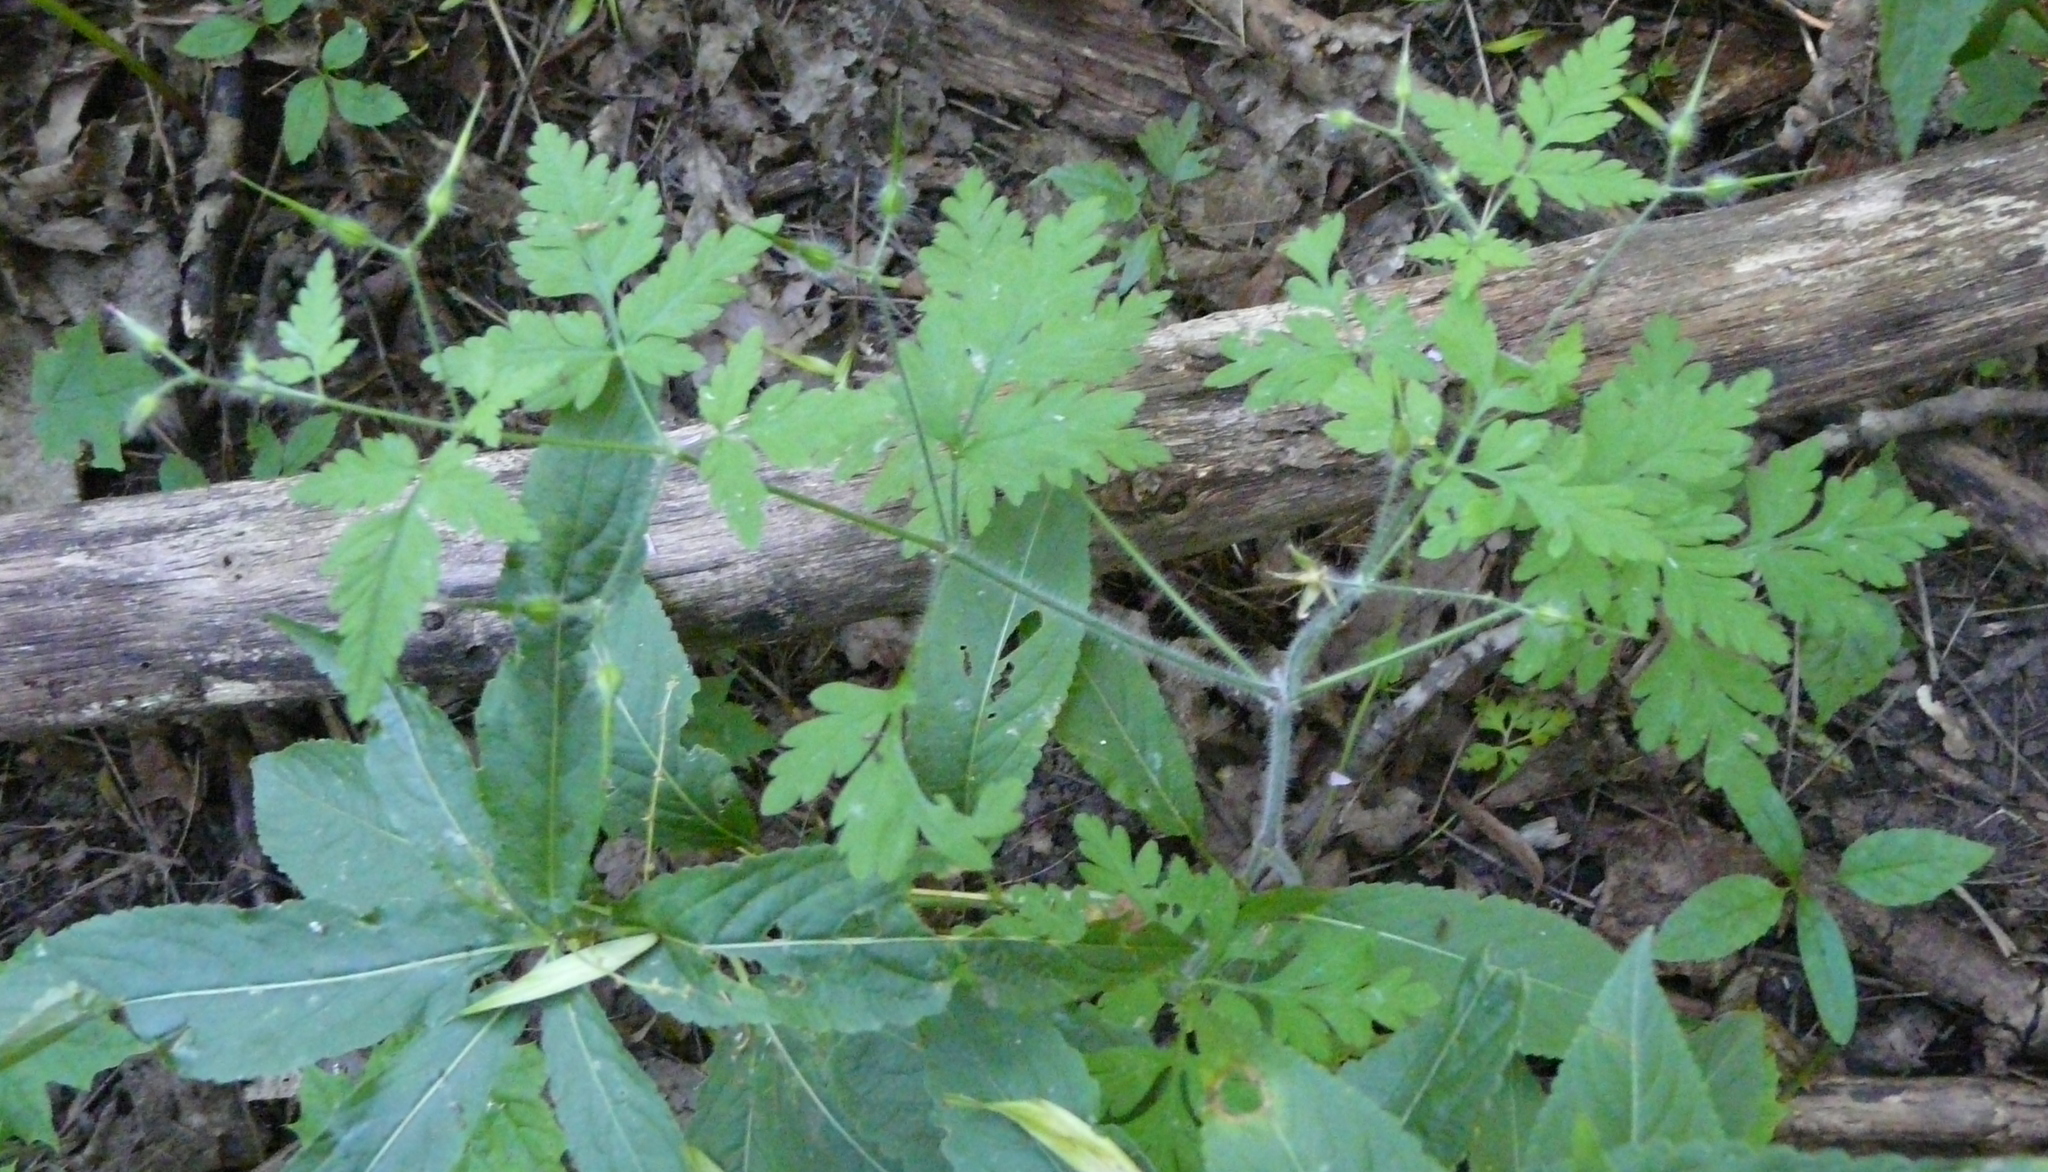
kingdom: Plantae
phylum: Tracheophyta
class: Magnoliopsida
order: Geraniales
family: Geraniaceae
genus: Geranium
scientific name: Geranium robertianum
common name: Herb-robert
